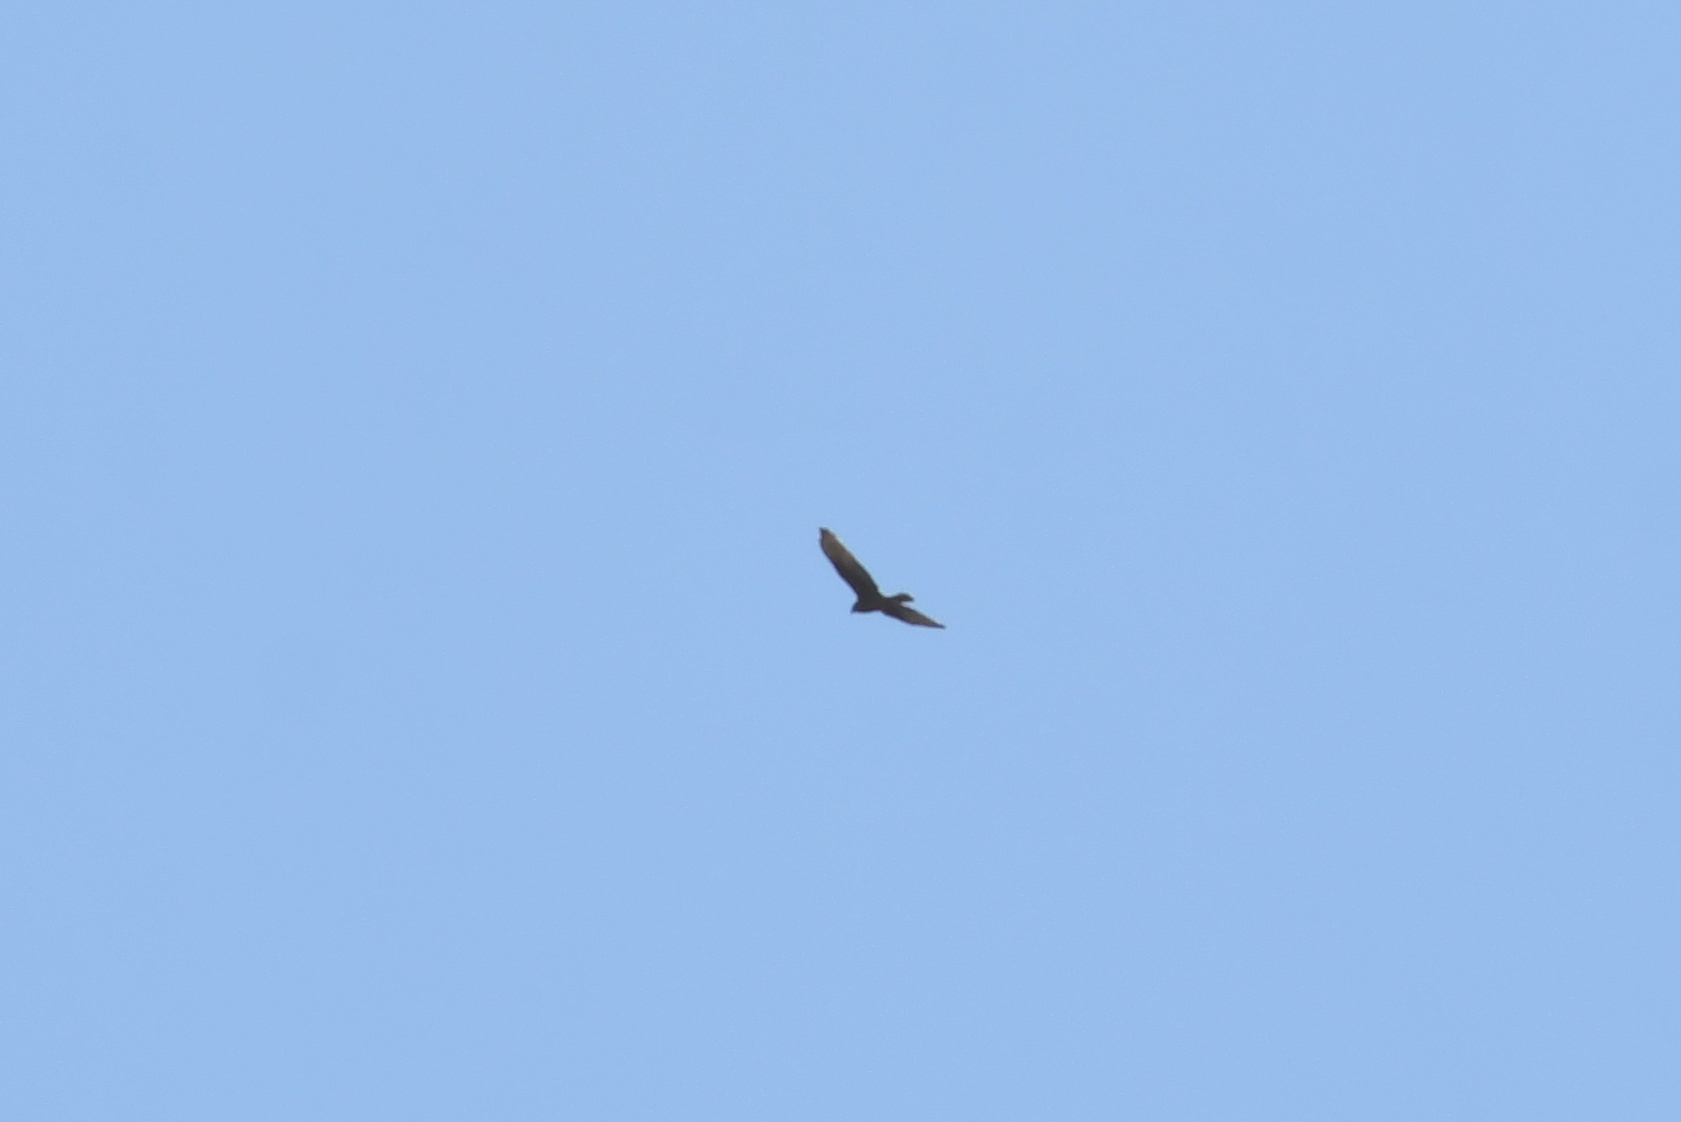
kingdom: Animalia
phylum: Chordata
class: Aves
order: Accipitriformes
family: Accipitridae
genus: Circus
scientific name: Circus approximans
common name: Swamp harrier
